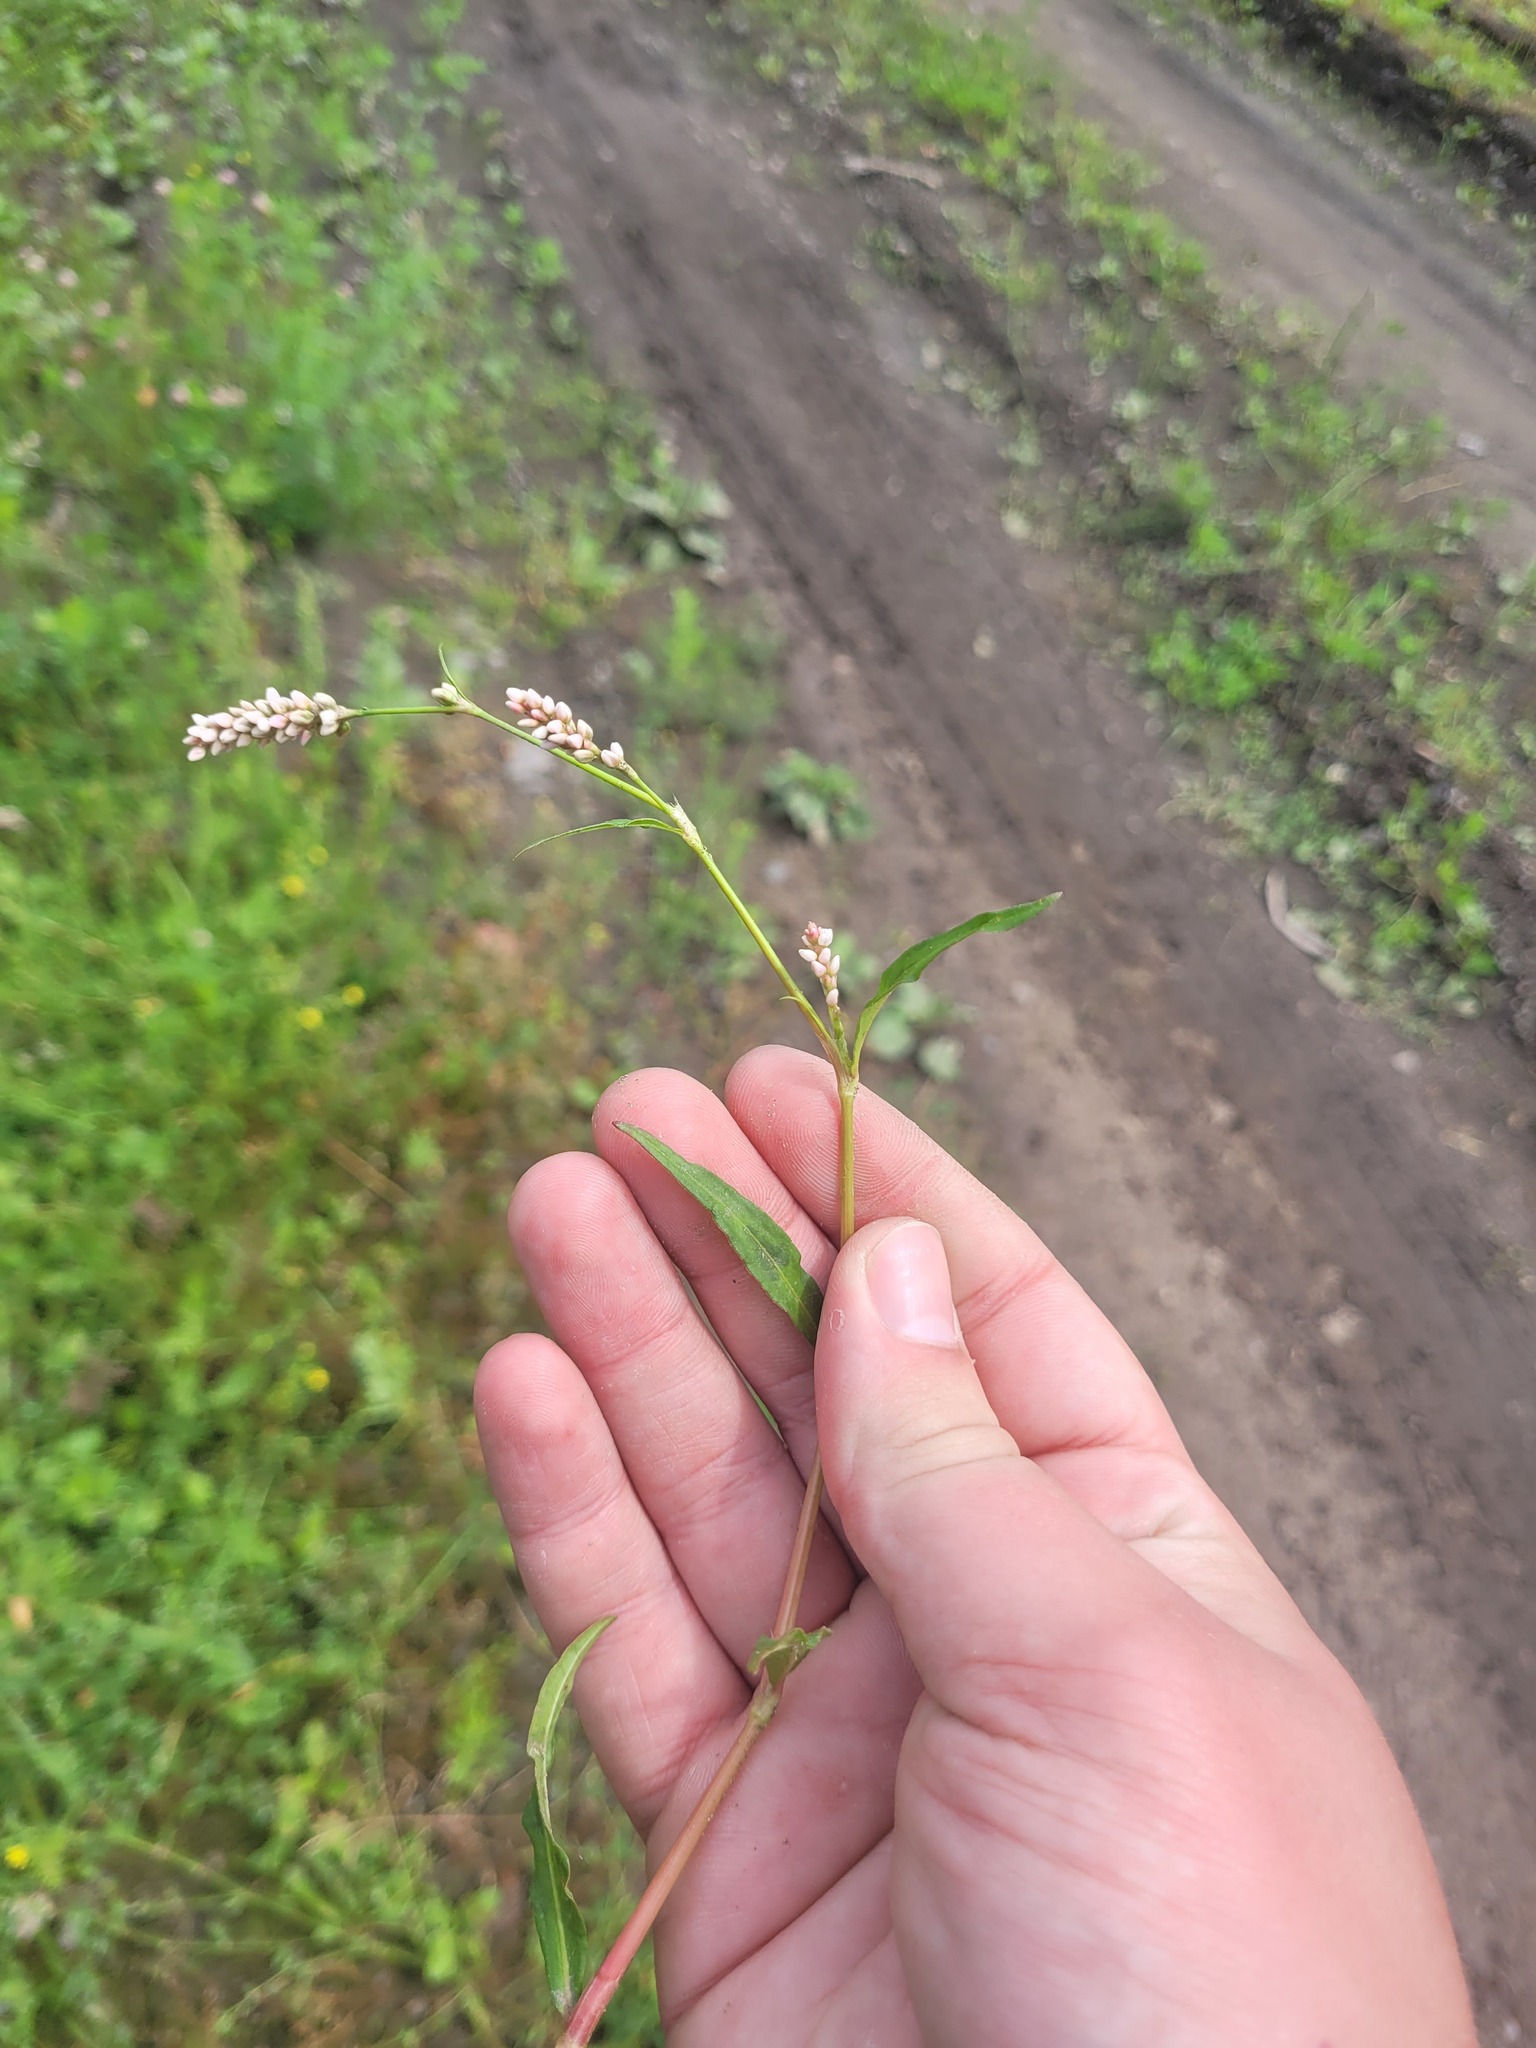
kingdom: Plantae
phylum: Tracheophyta
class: Magnoliopsida
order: Caryophyllales
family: Polygonaceae
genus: Persicaria
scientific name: Persicaria maculosa
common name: Redshank
